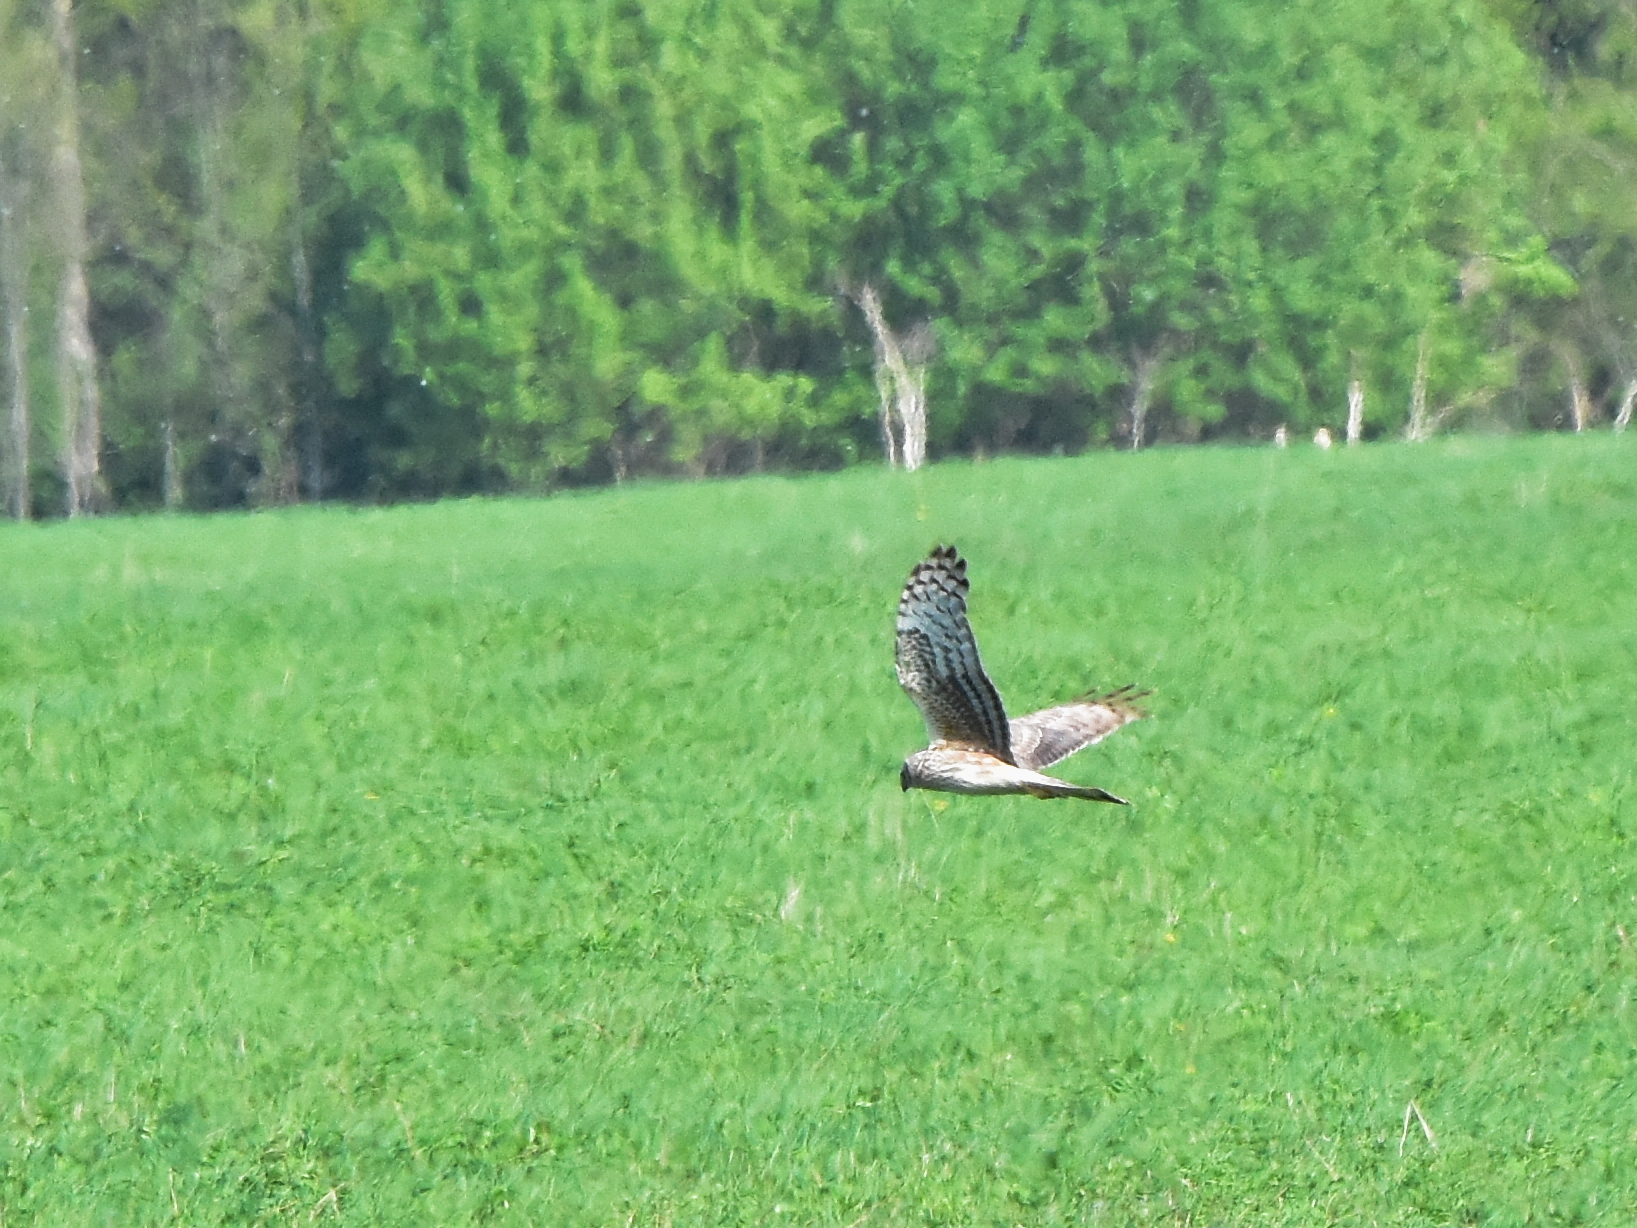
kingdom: Animalia
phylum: Chordata
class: Aves
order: Accipitriformes
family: Accipitridae
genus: Circus
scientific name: Circus cyaneus
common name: Hen harrier
